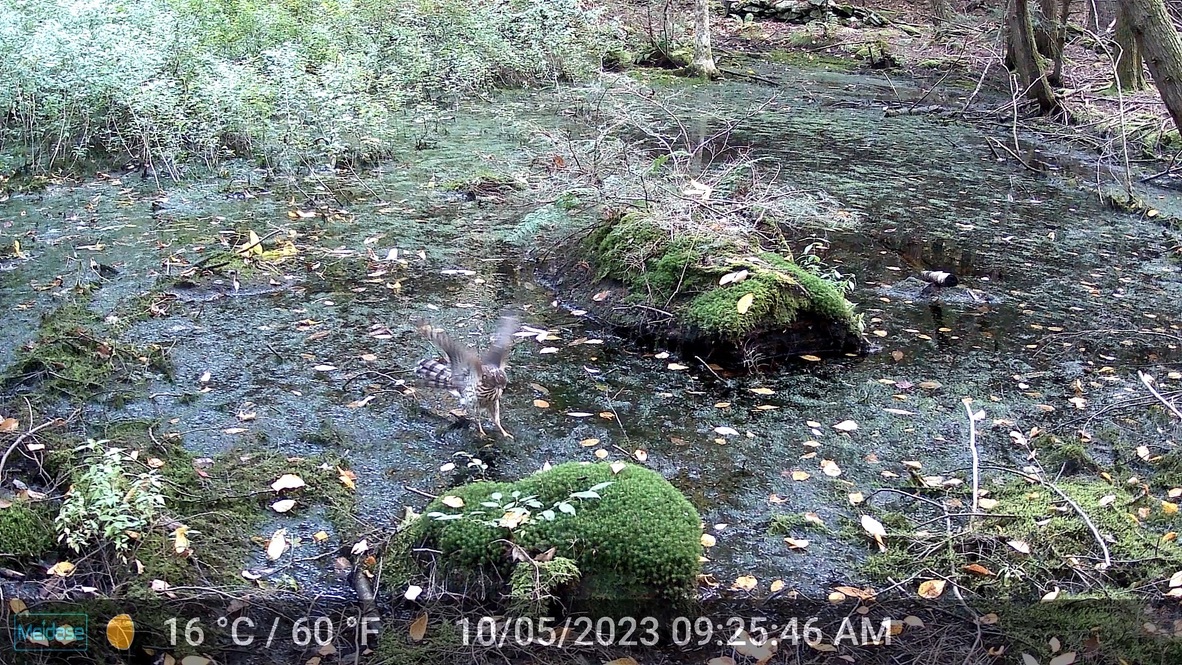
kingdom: Animalia
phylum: Chordata
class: Aves
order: Accipitriformes
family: Accipitridae
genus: Accipiter
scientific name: Accipiter cooperii
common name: Cooper's hawk
